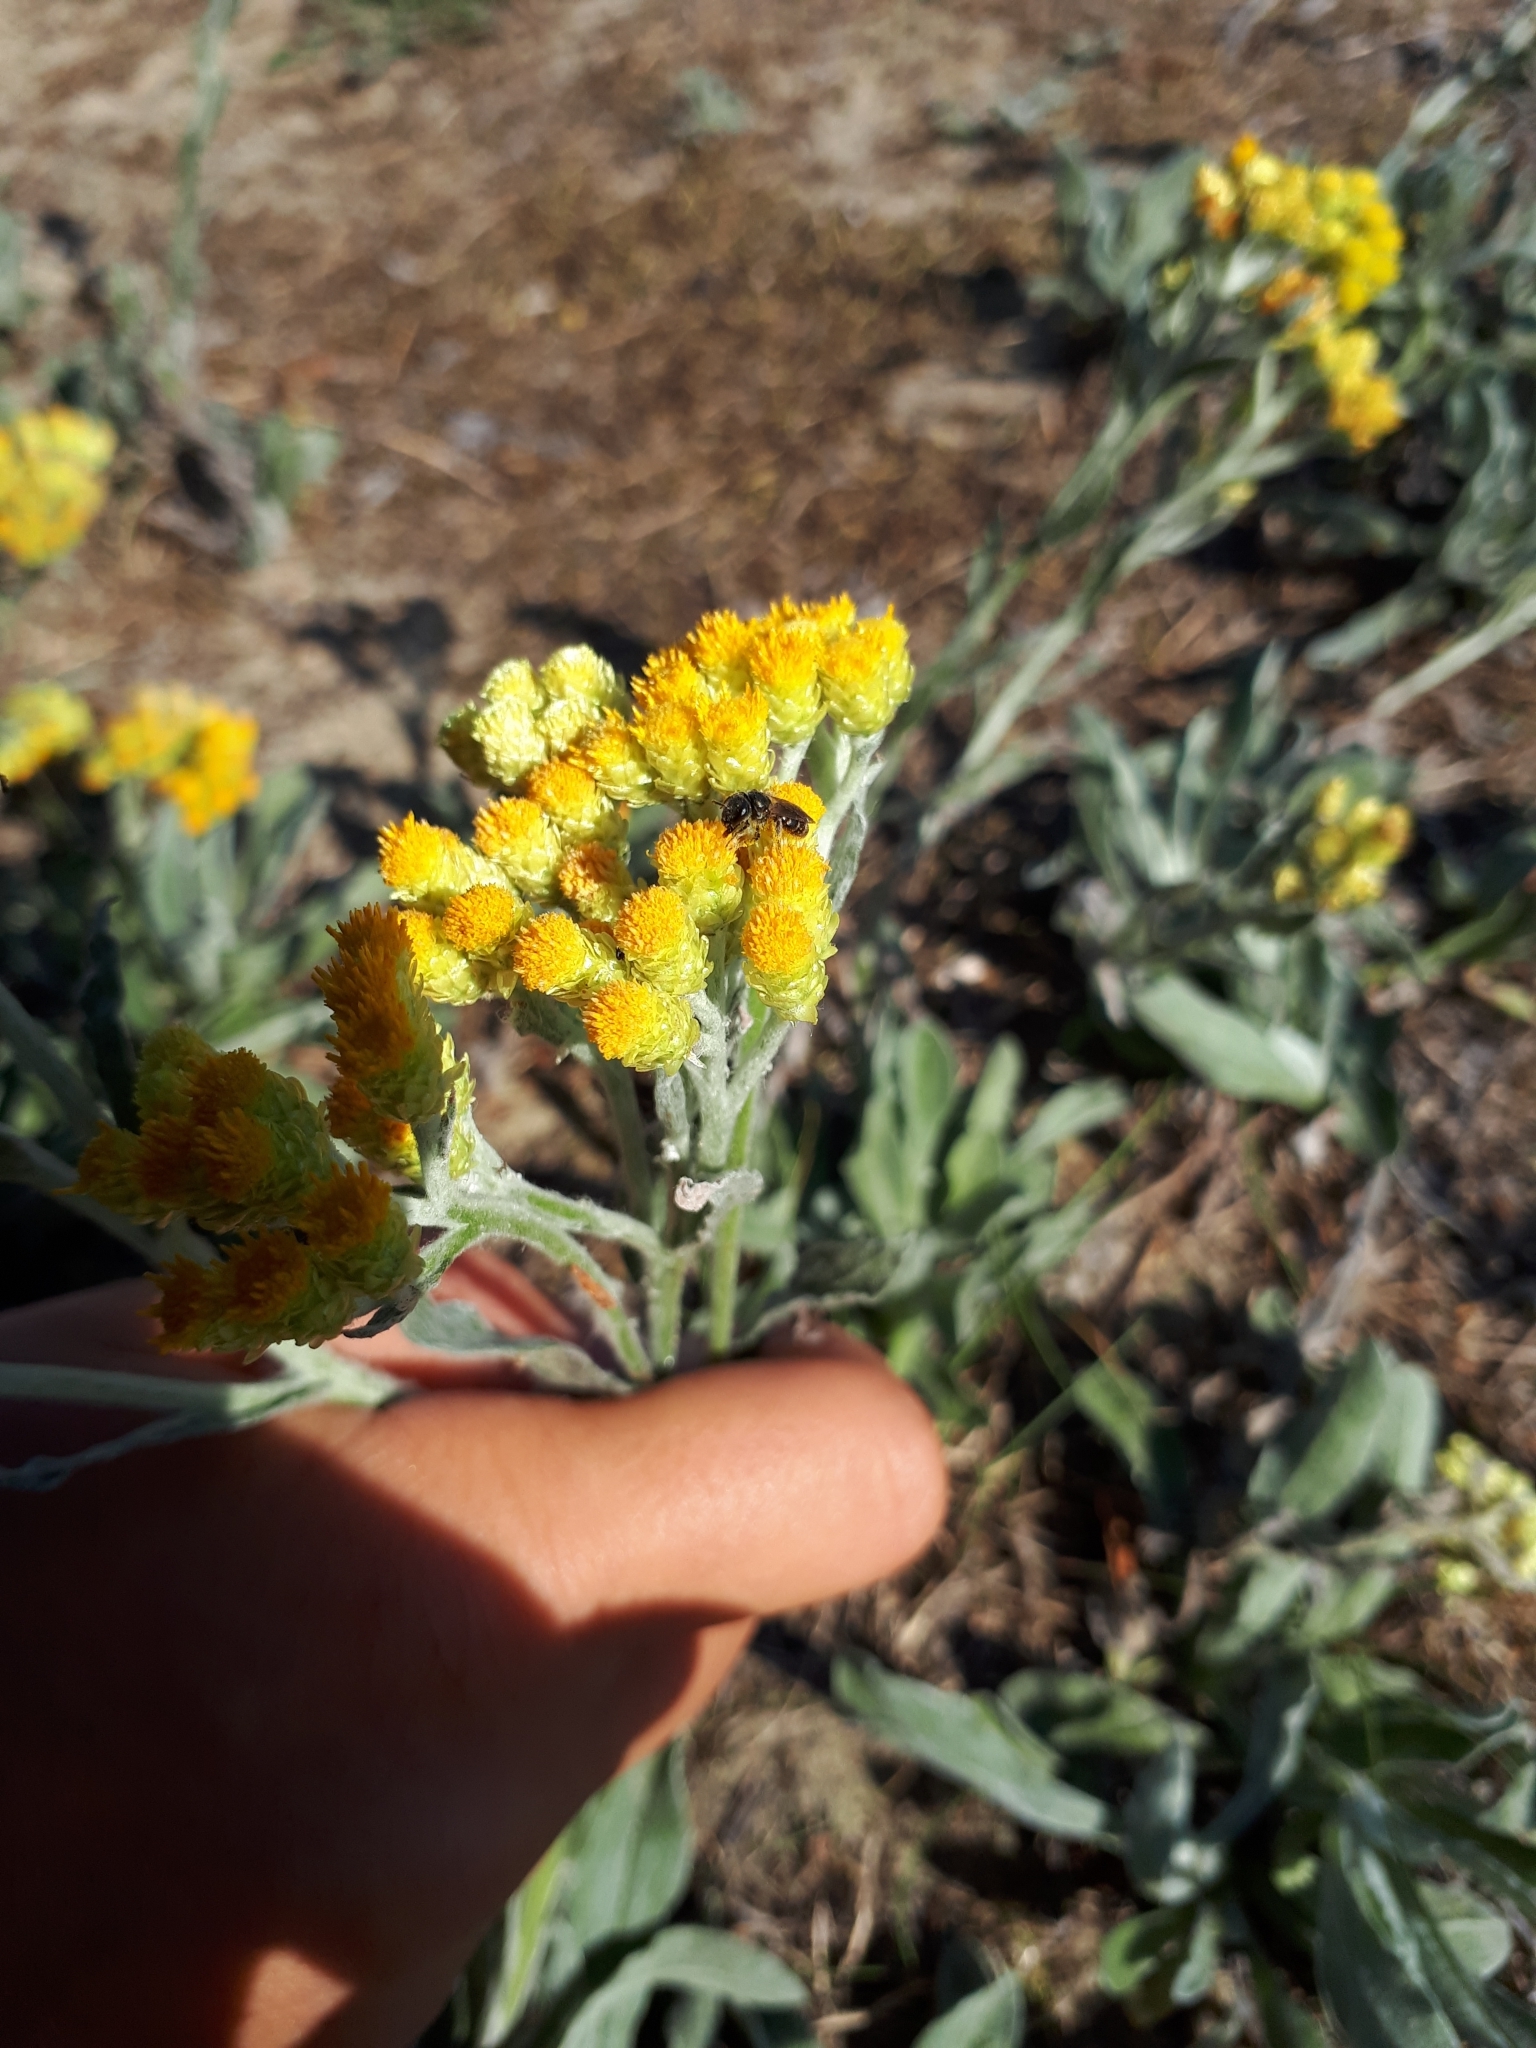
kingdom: Plantae
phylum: Tracheophyta
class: Magnoliopsida
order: Asterales
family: Asteraceae
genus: Helichrysum
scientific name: Helichrysum arenarium
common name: Strawflower
